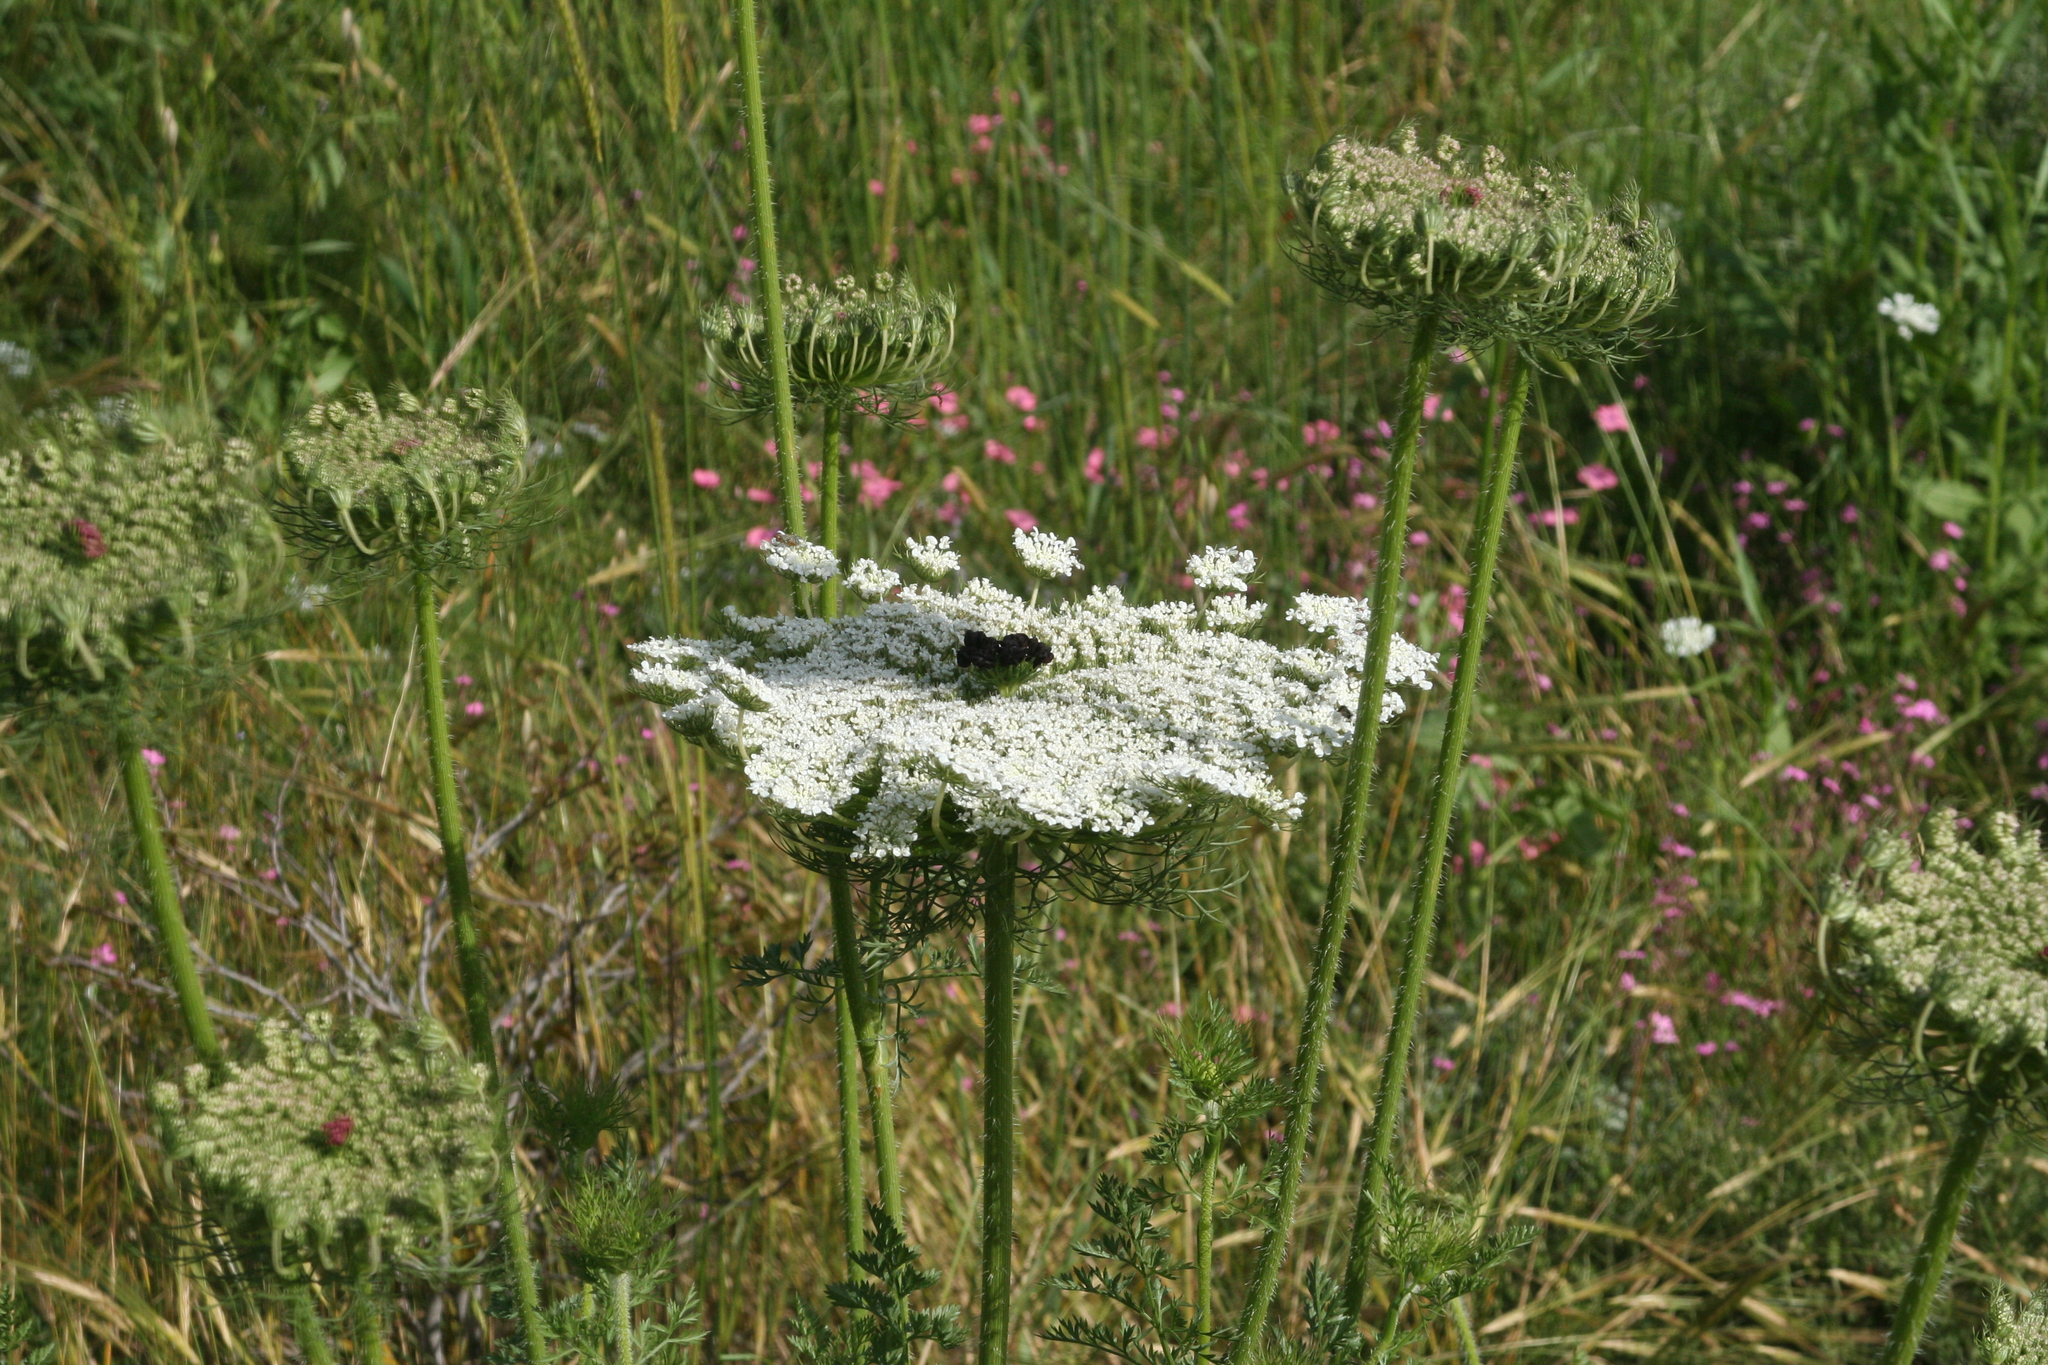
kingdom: Plantae
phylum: Tracheophyta
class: Magnoliopsida
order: Apiales
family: Apiaceae
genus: Daucus
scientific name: Daucus carota
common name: Wild carrot
